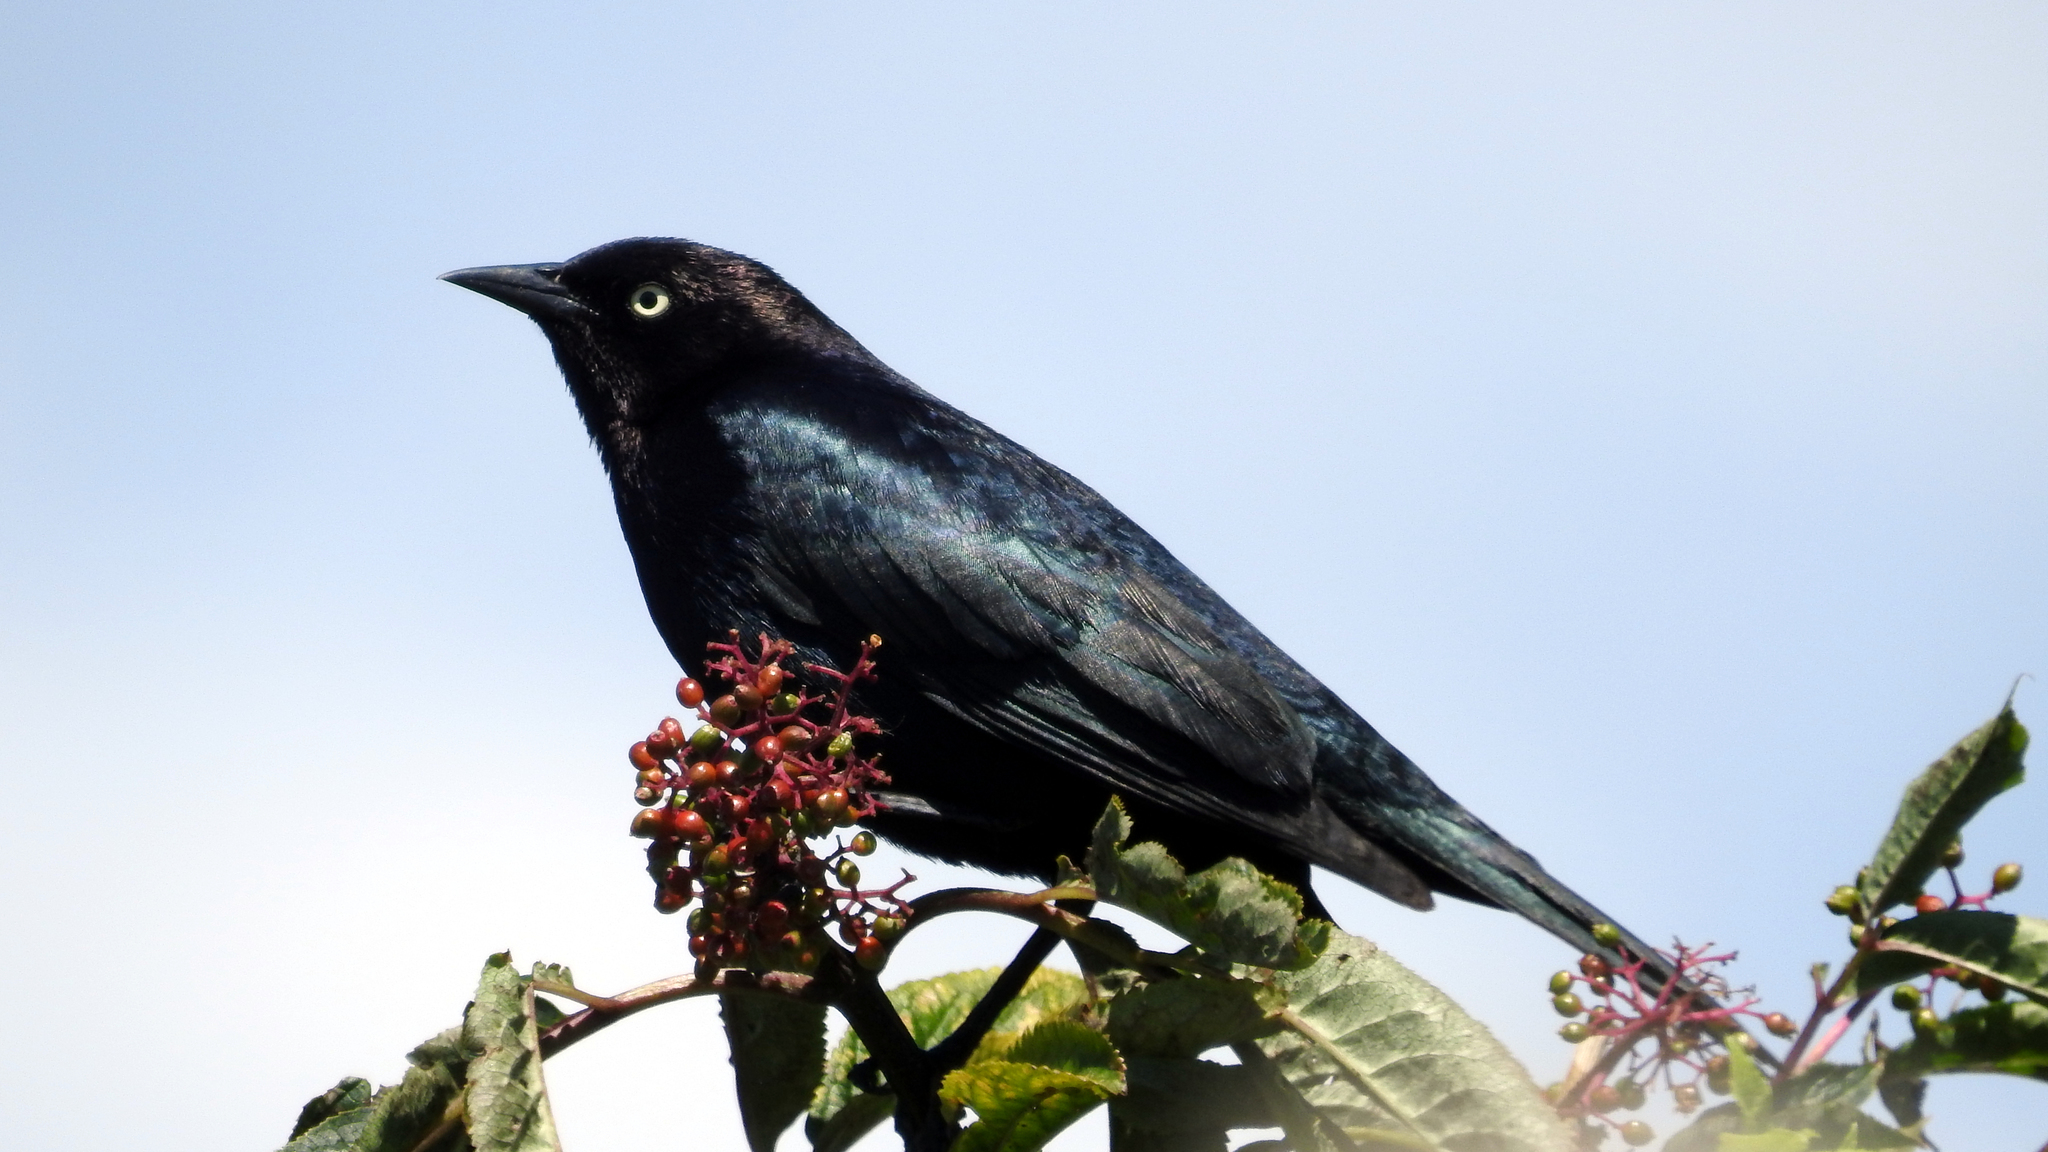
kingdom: Animalia
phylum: Chordata
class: Aves
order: Passeriformes
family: Icteridae
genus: Euphagus
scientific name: Euphagus cyanocephalus
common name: Brewer's blackbird
